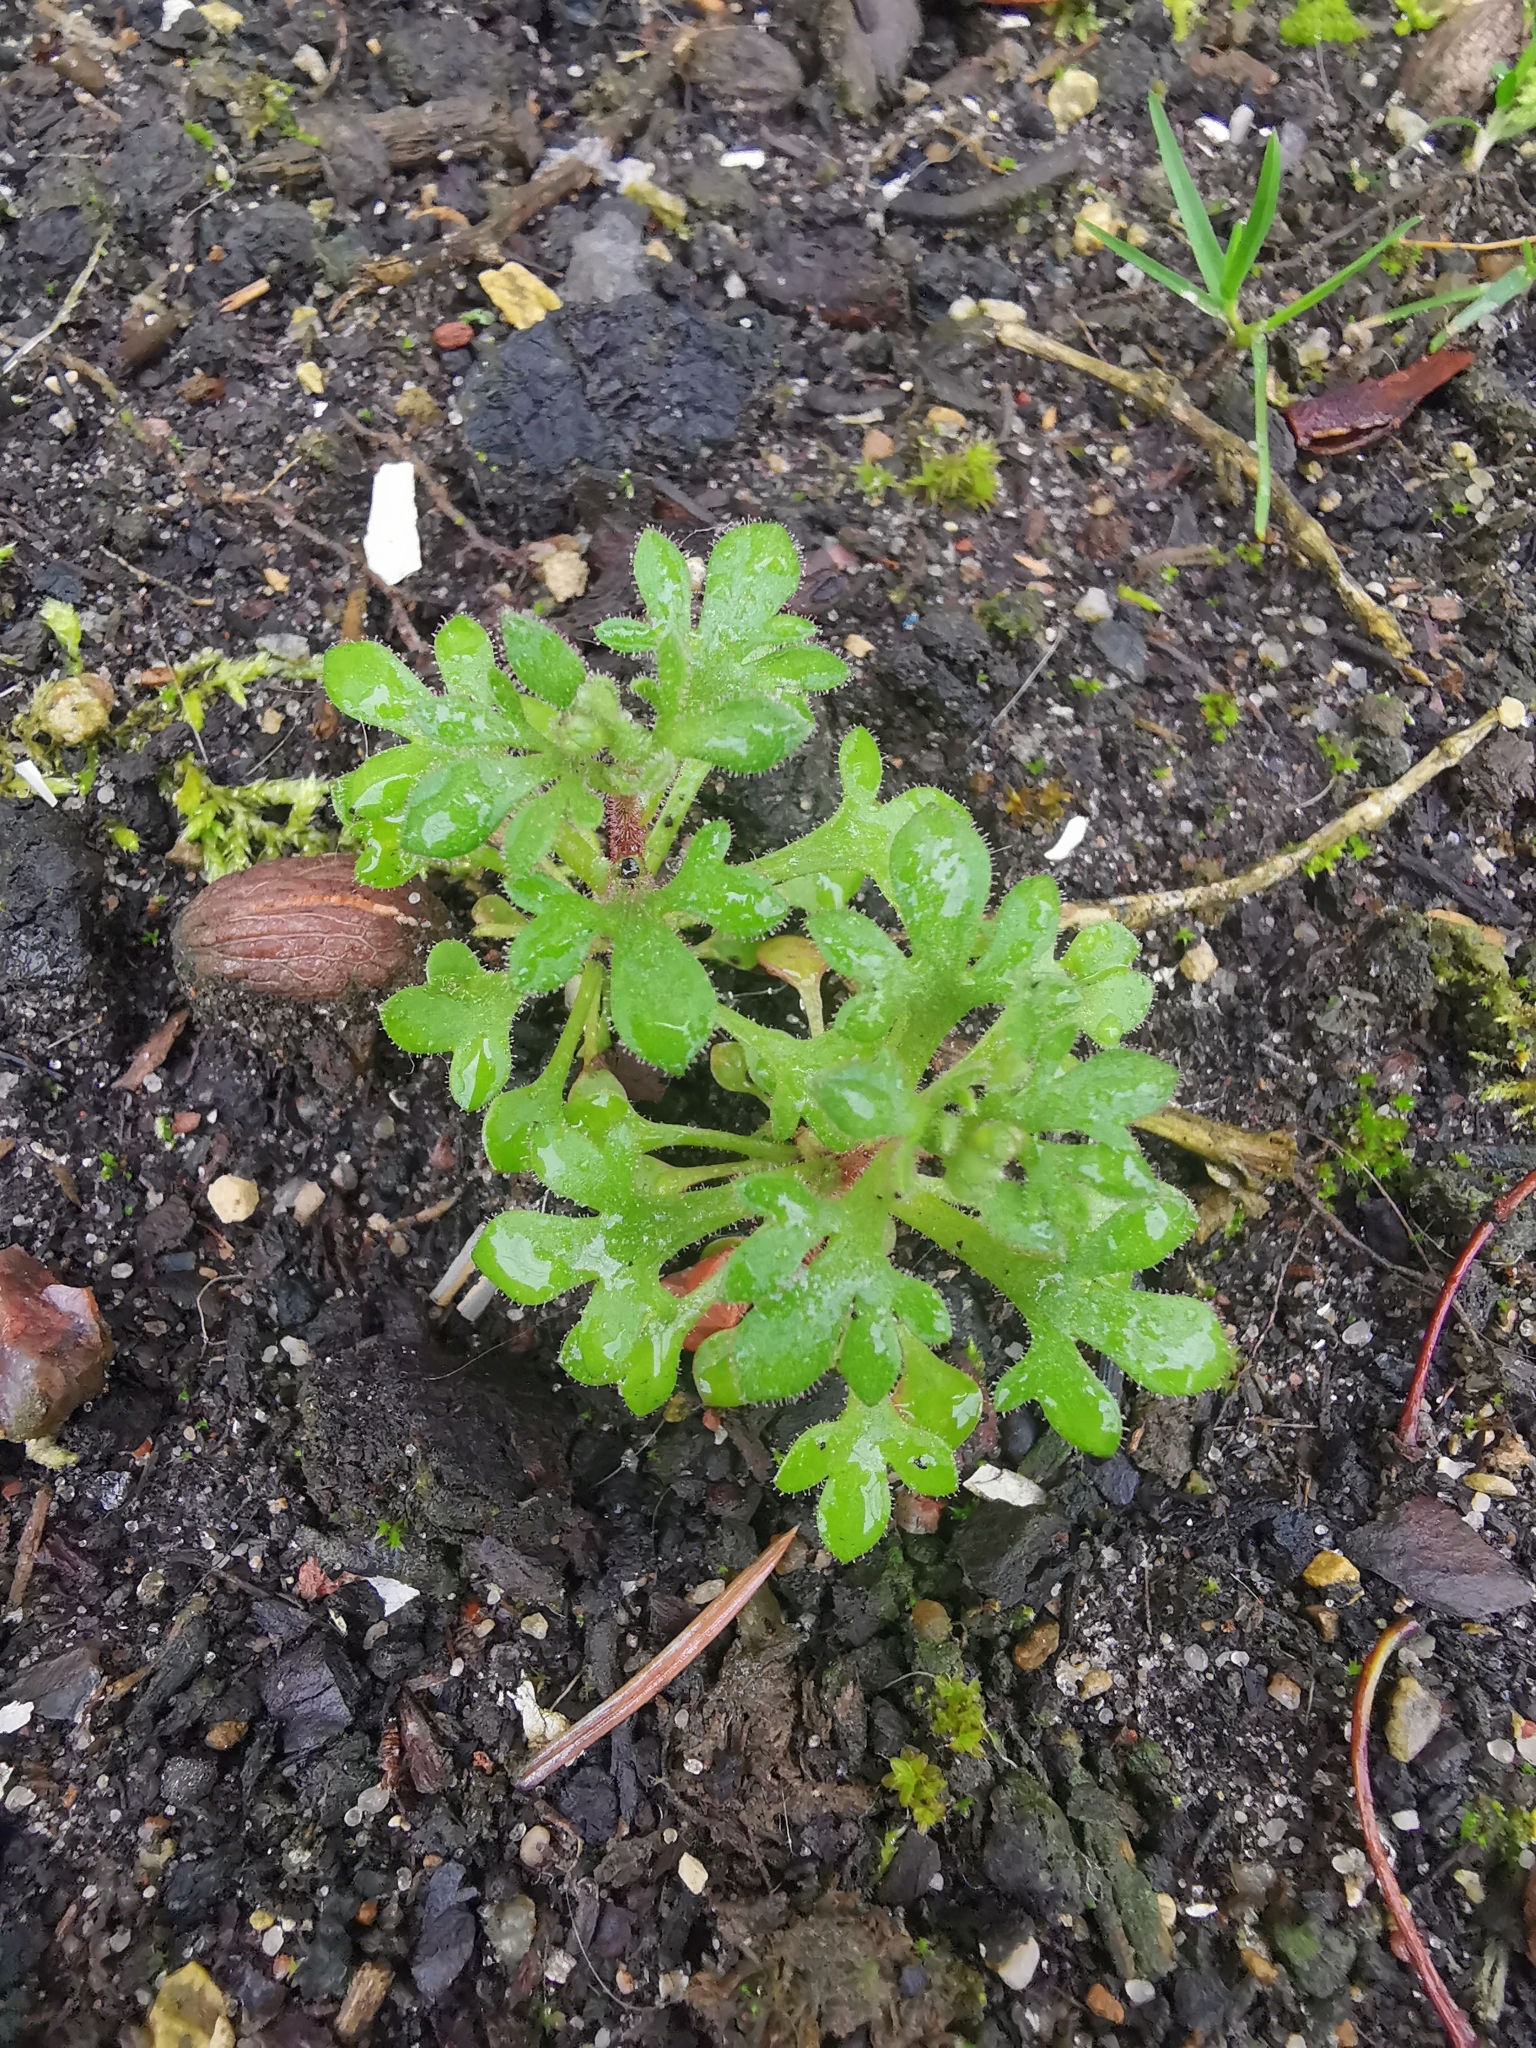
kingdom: Plantae
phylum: Tracheophyta
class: Magnoliopsida
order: Saxifragales
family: Saxifragaceae
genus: Saxifraga
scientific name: Saxifraga tridactylites
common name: Rue-leaved saxifrage
